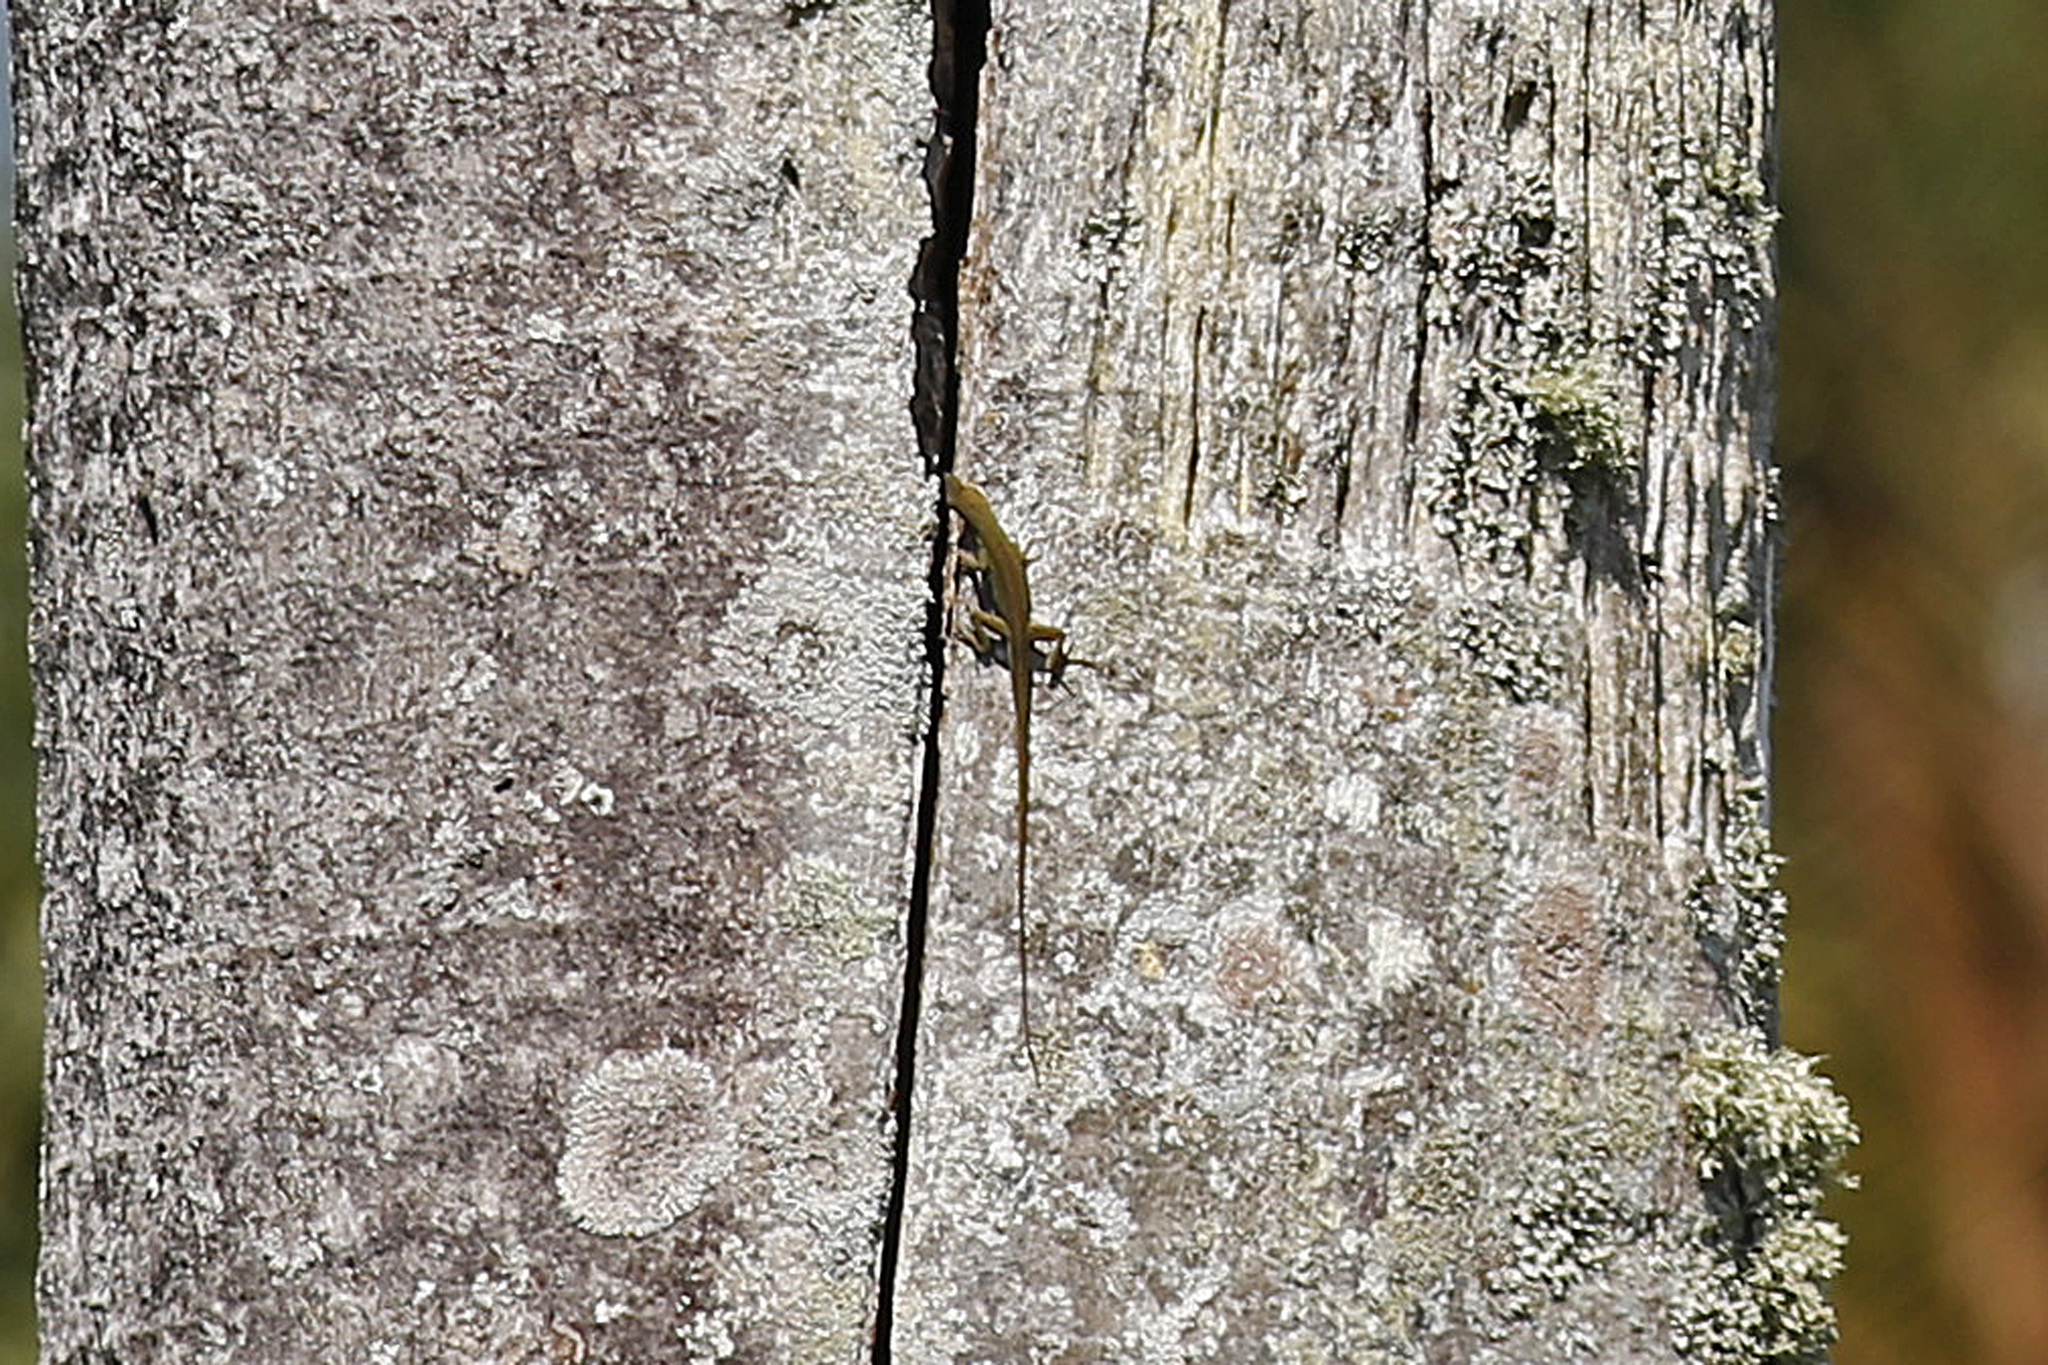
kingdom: Animalia
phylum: Chordata
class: Squamata
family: Dactyloidae
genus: Anolis
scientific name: Anolis carolinensis
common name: Green anole
